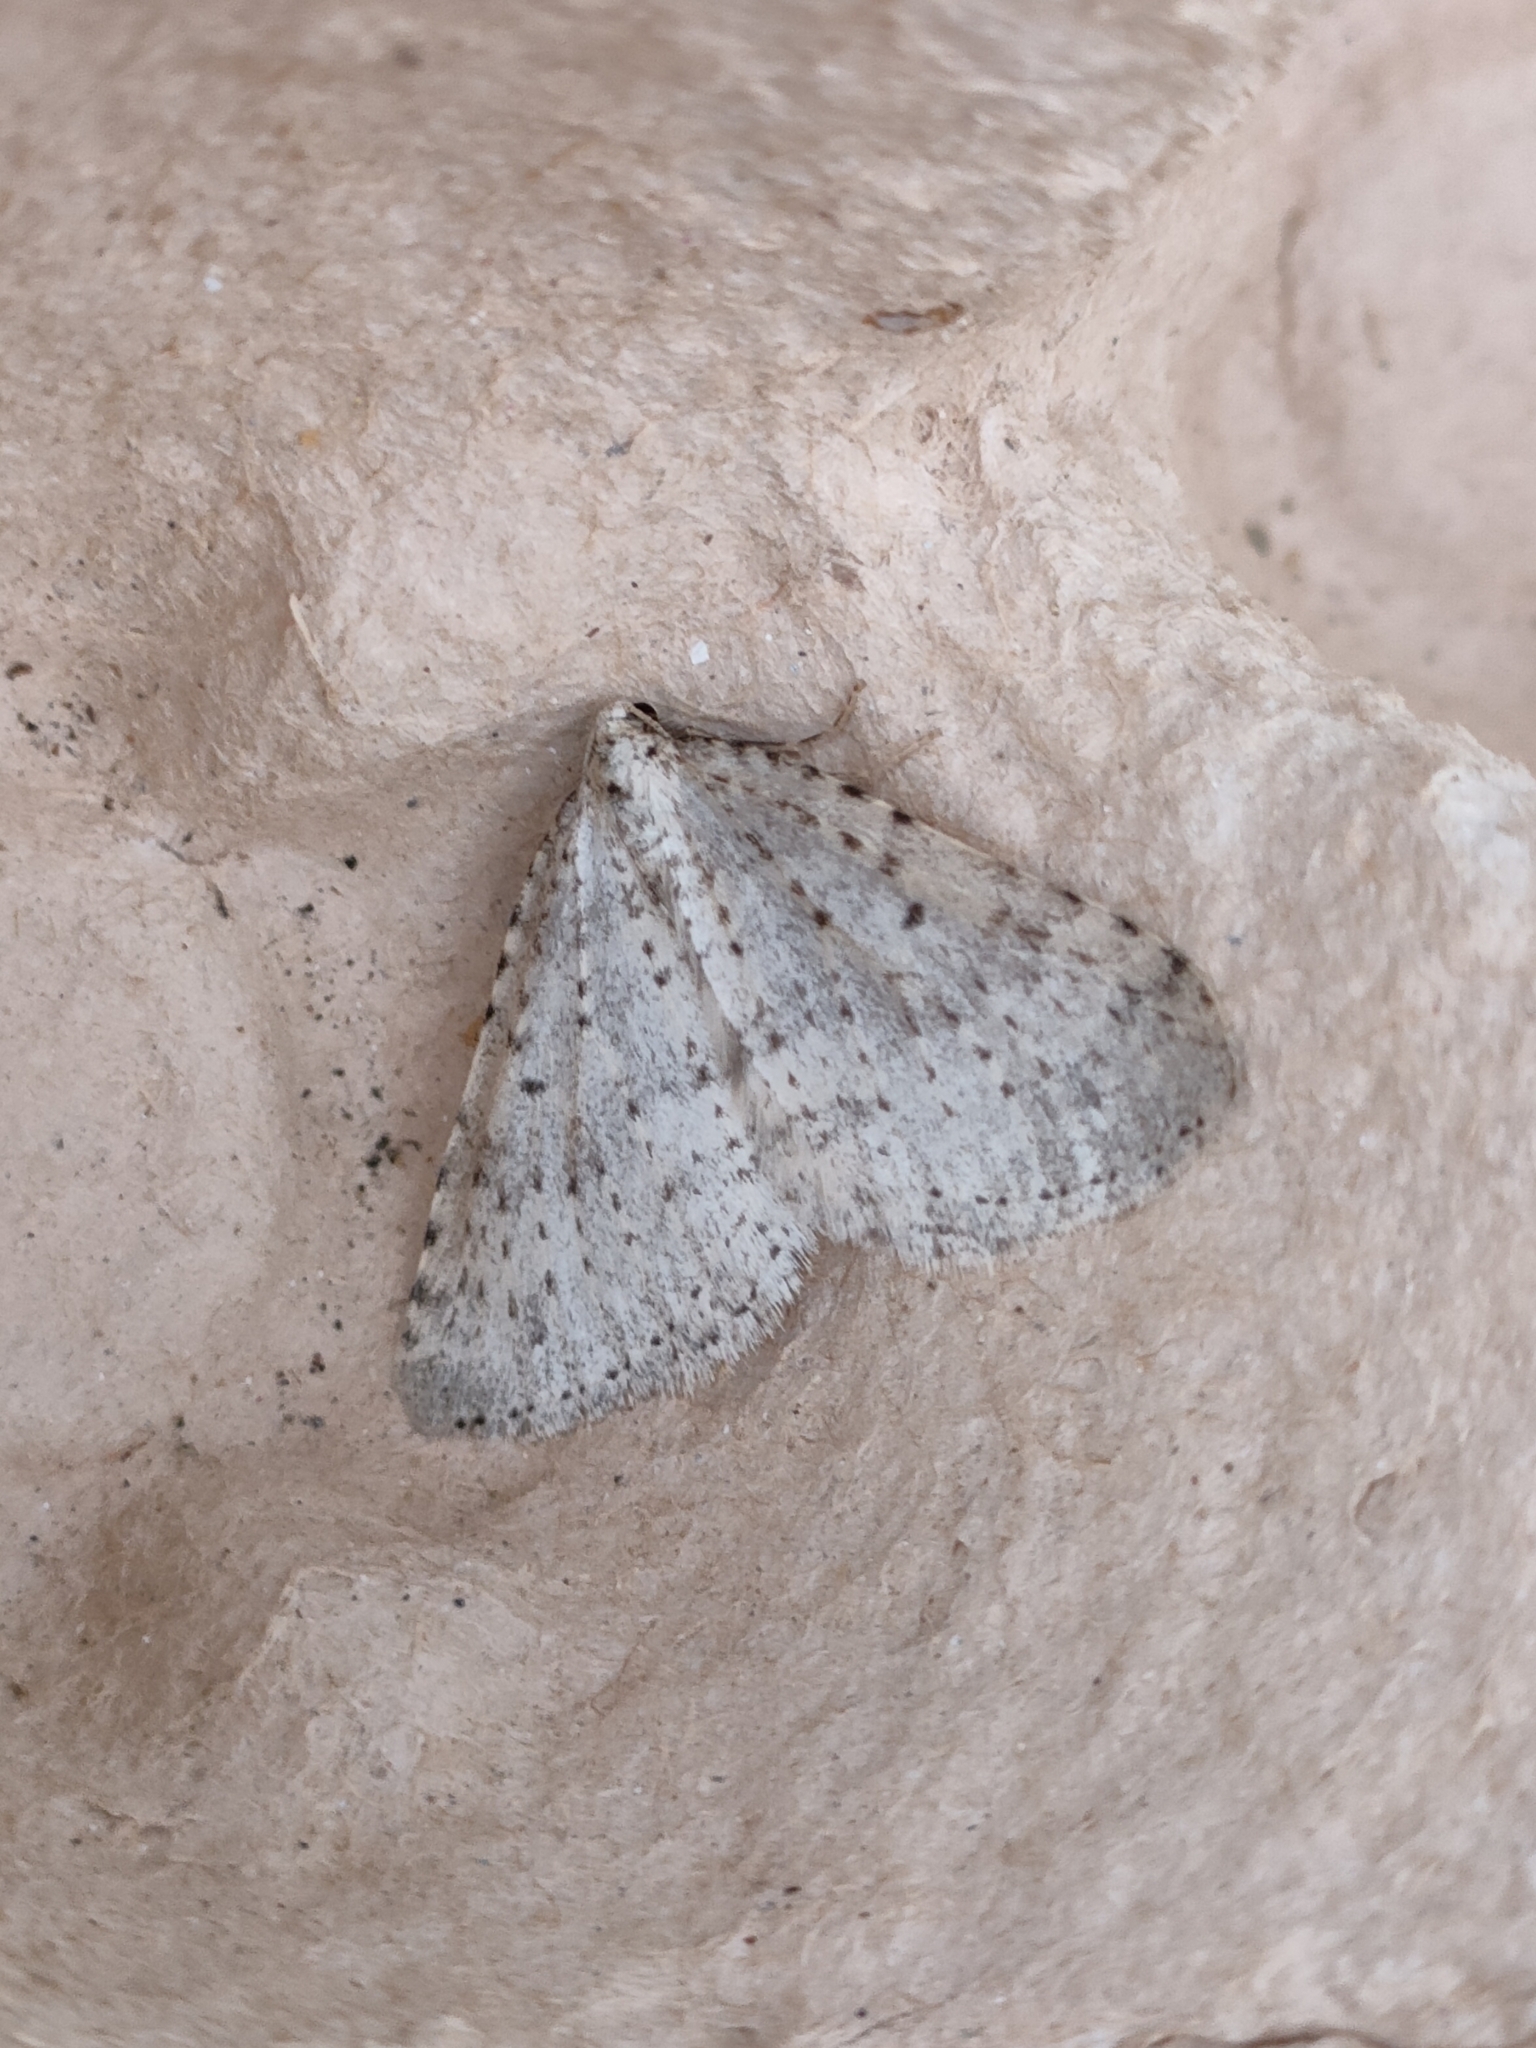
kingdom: Animalia
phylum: Arthropoda
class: Insecta
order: Lepidoptera
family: Geometridae
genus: Colostygia
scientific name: Colostygia multistrigaria
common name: Mottled grey
